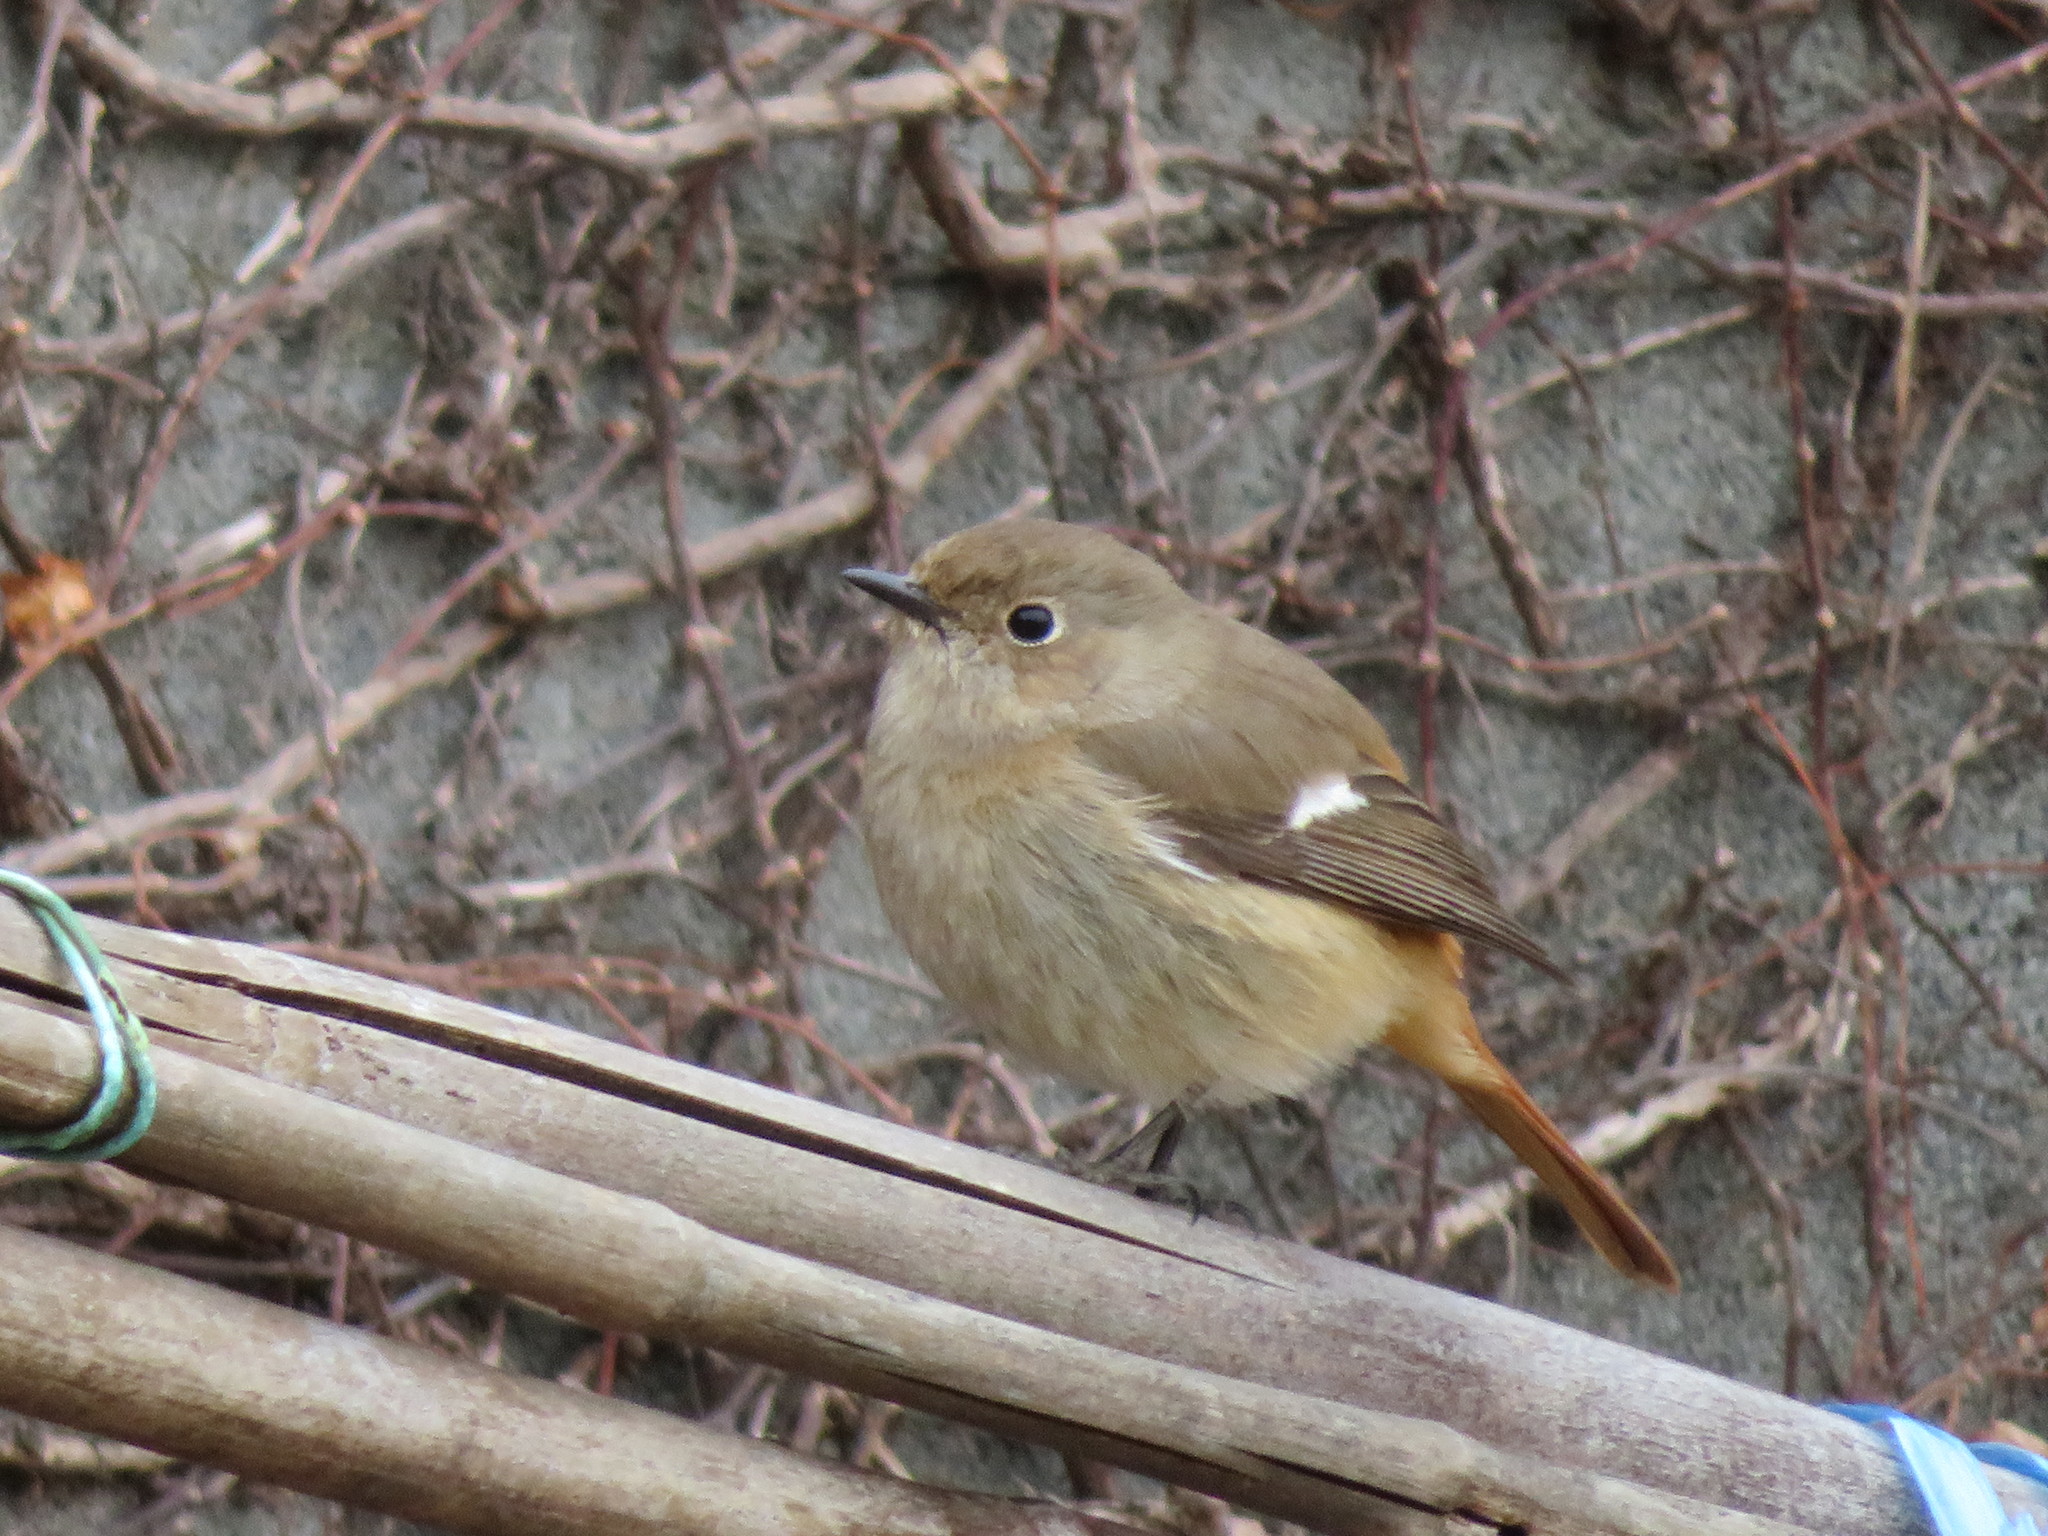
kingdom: Animalia
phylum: Chordata
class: Aves
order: Passeriformes
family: Muscicapidae
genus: Phoenicurus
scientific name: Phoenicurus auroreus
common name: Daurian redstart
